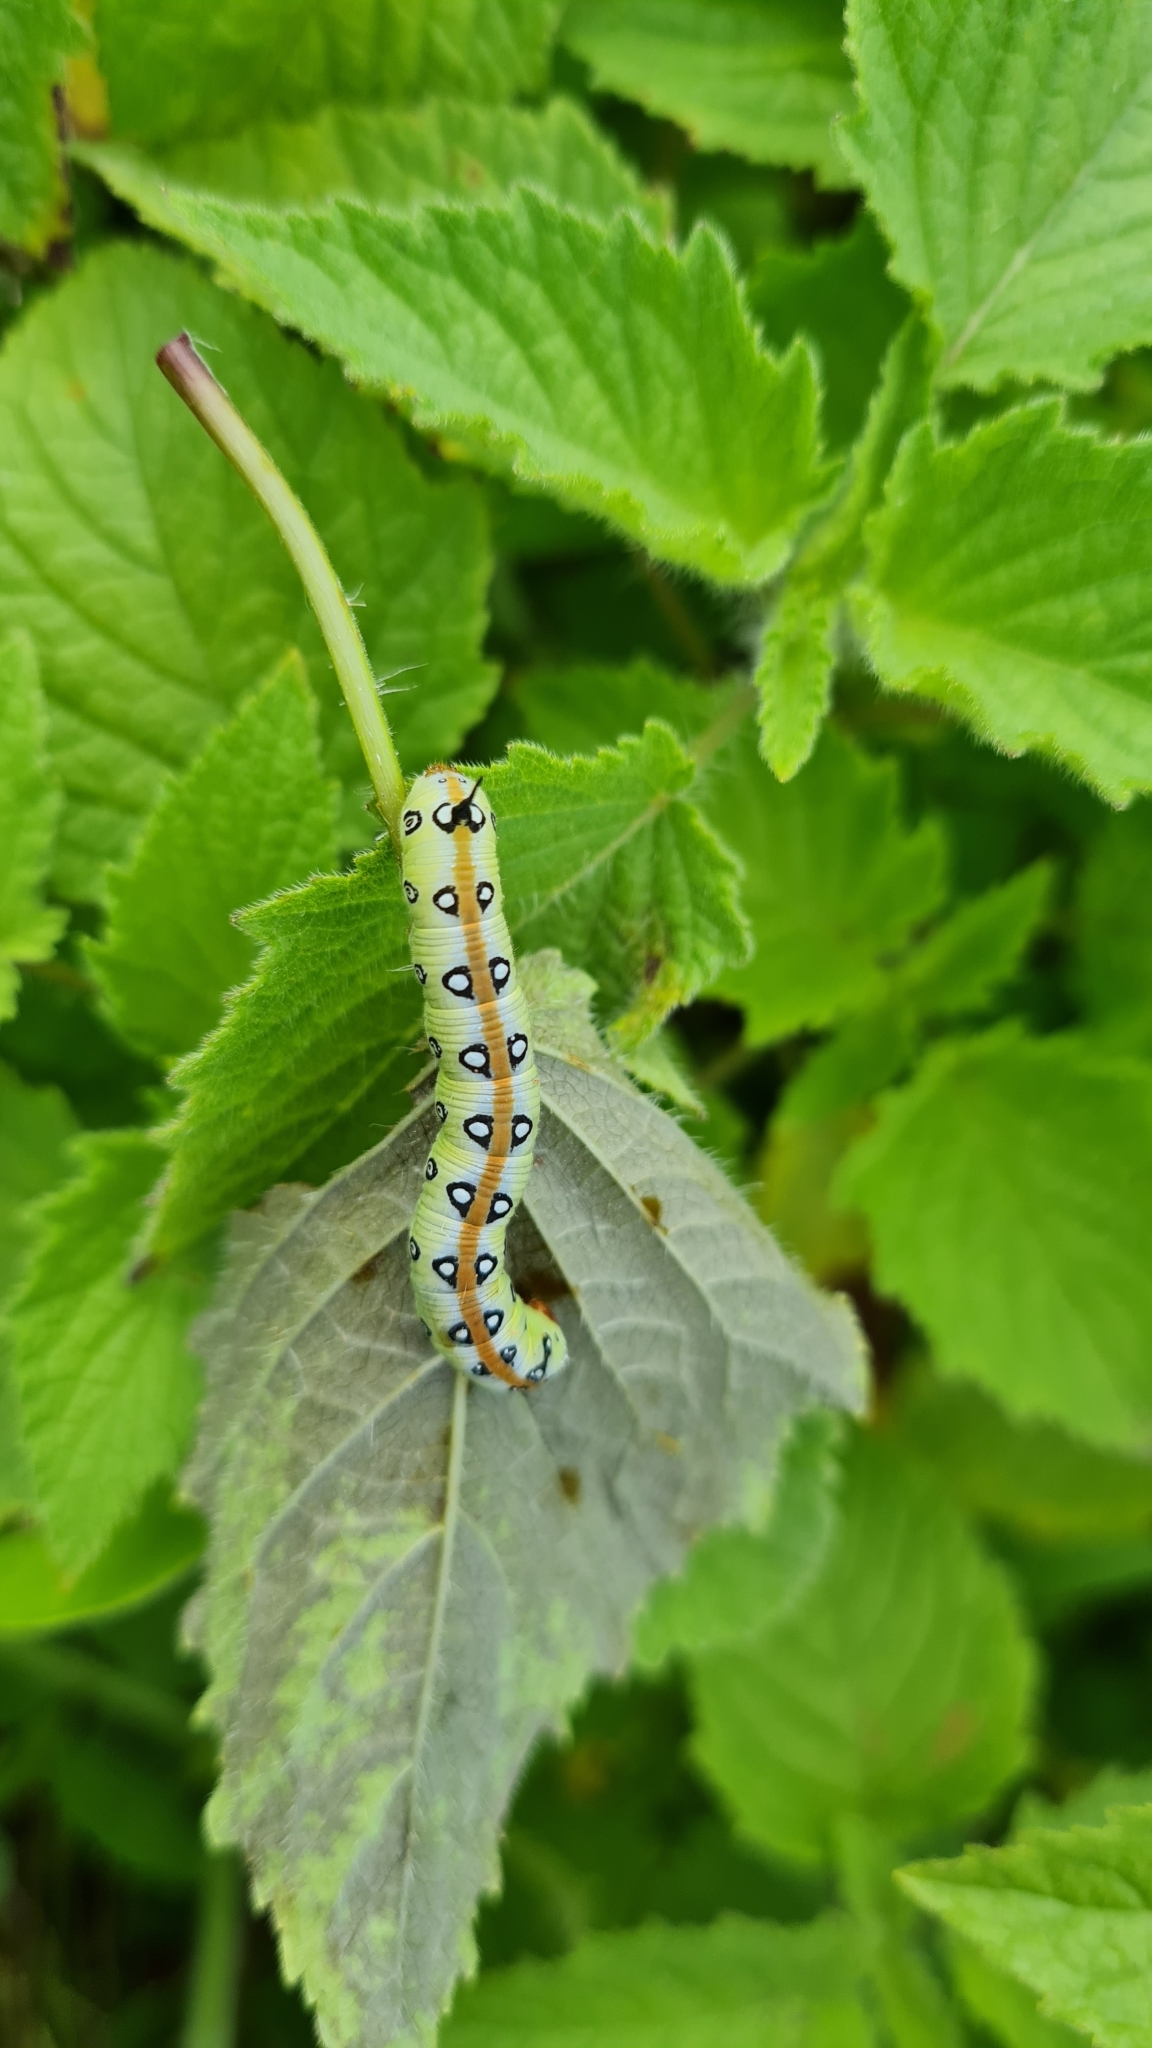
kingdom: Animalia
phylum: Arthropoda
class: Insecta
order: Lepidoptera
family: Sphingidae
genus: Neogene
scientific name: Neogene dynaeus
